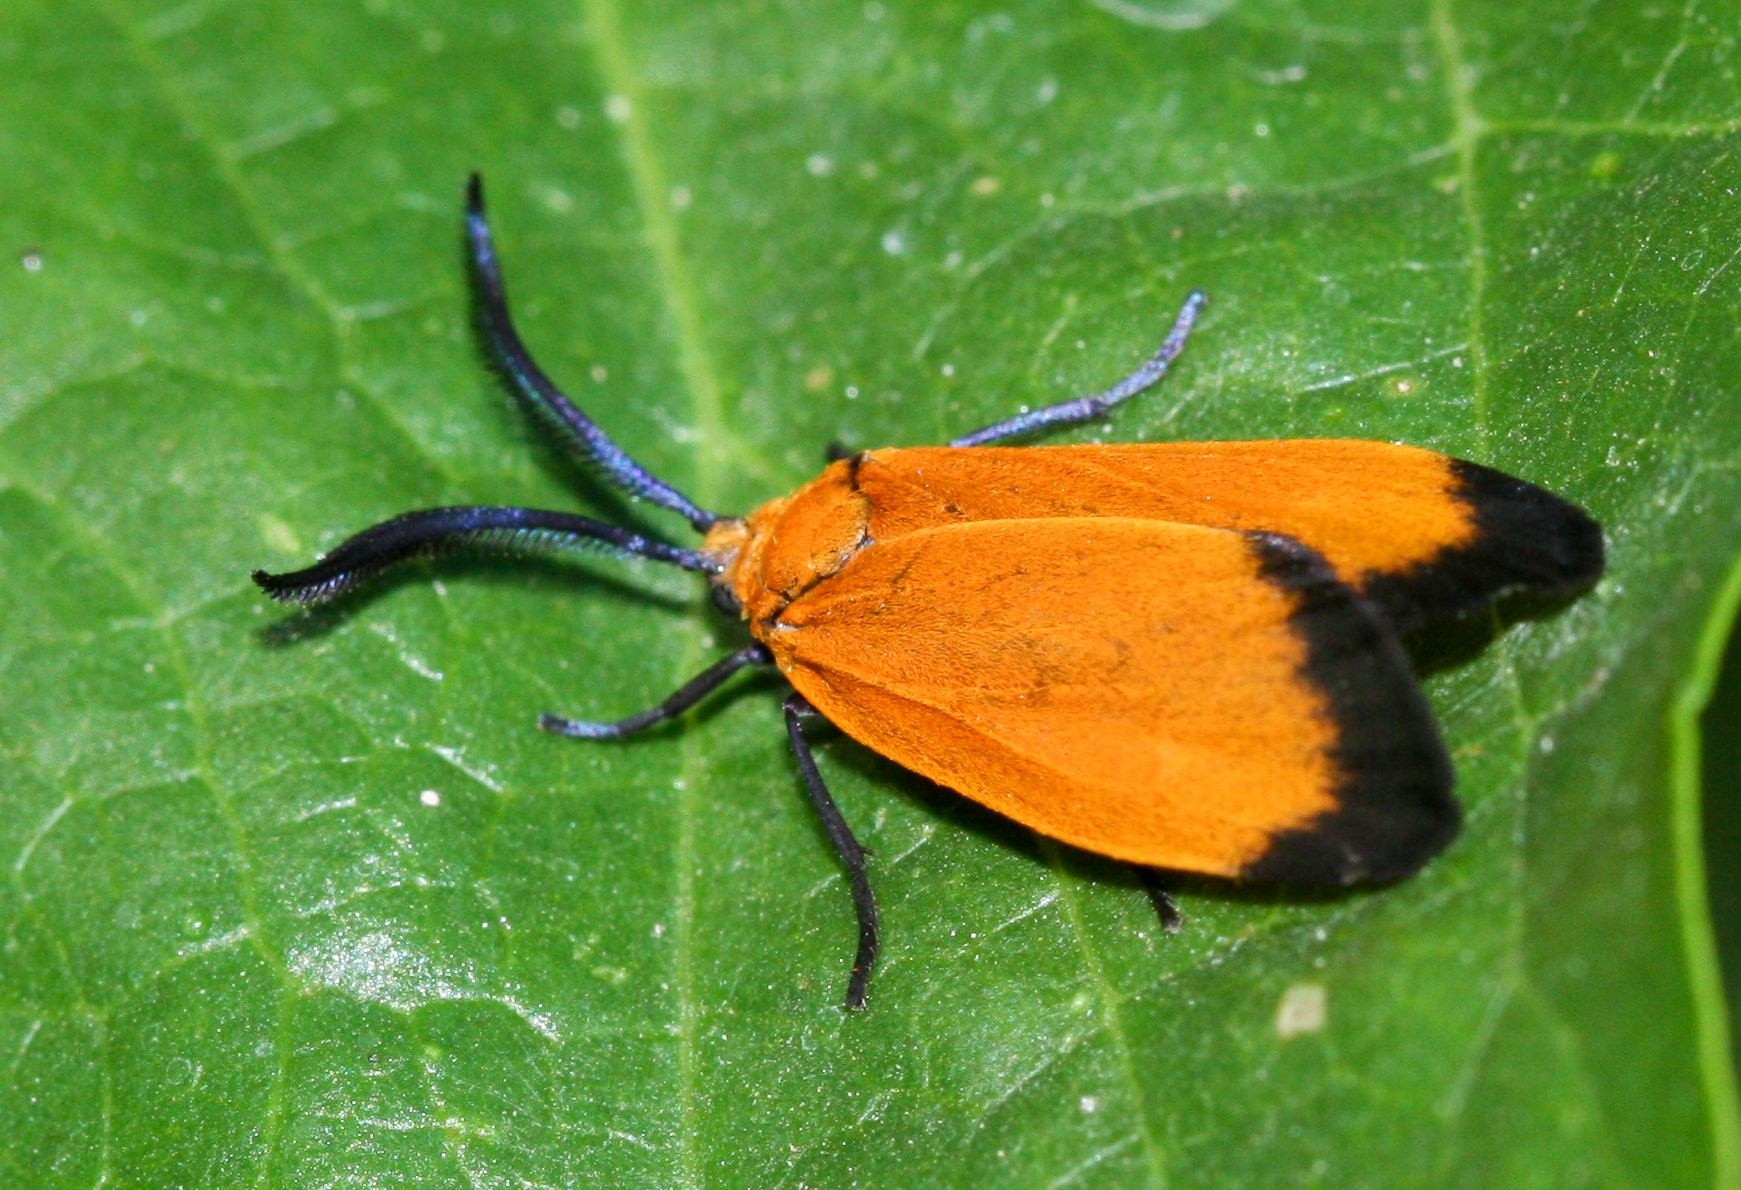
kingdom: Animalia
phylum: Arthropoda
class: Insecta
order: Lepidoptera
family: Zygaenidae
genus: Neoalbertia
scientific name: Neoalbertia constans
